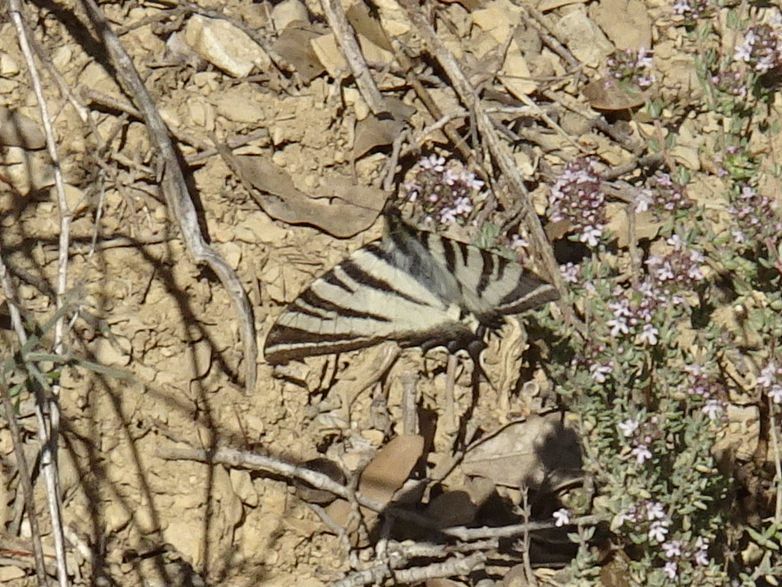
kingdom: Animalia
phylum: Arthropoda
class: Insecta
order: Lepidoptera
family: Papilionidae
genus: Iphiclides
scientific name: Iphiclides podalirius
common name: Scarce swallowtail
